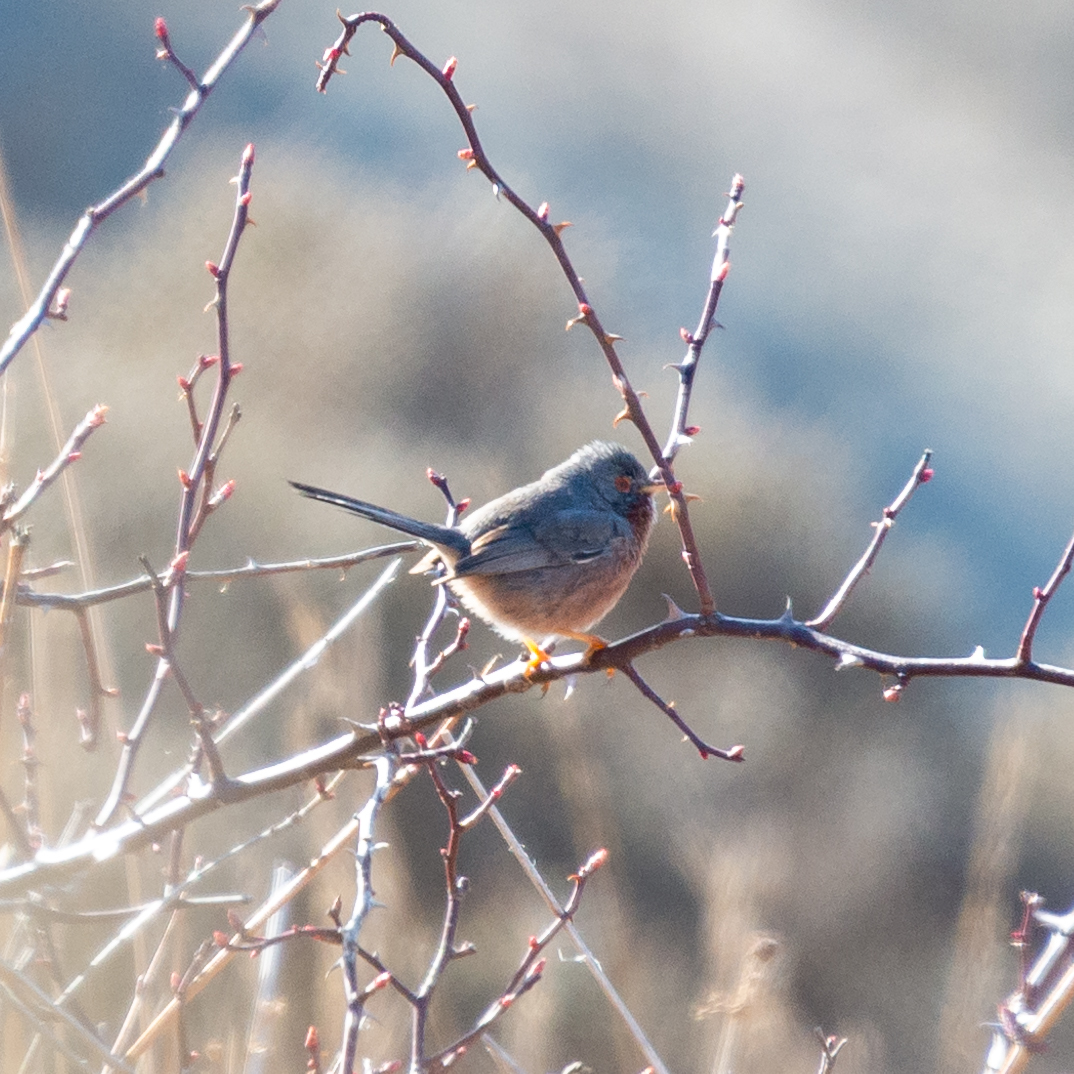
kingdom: Animalia
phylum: Chordata
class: Aves
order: Passeriformes
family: Sylviidae
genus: Sylvia
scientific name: Sylvia undata
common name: Dartford warbler
